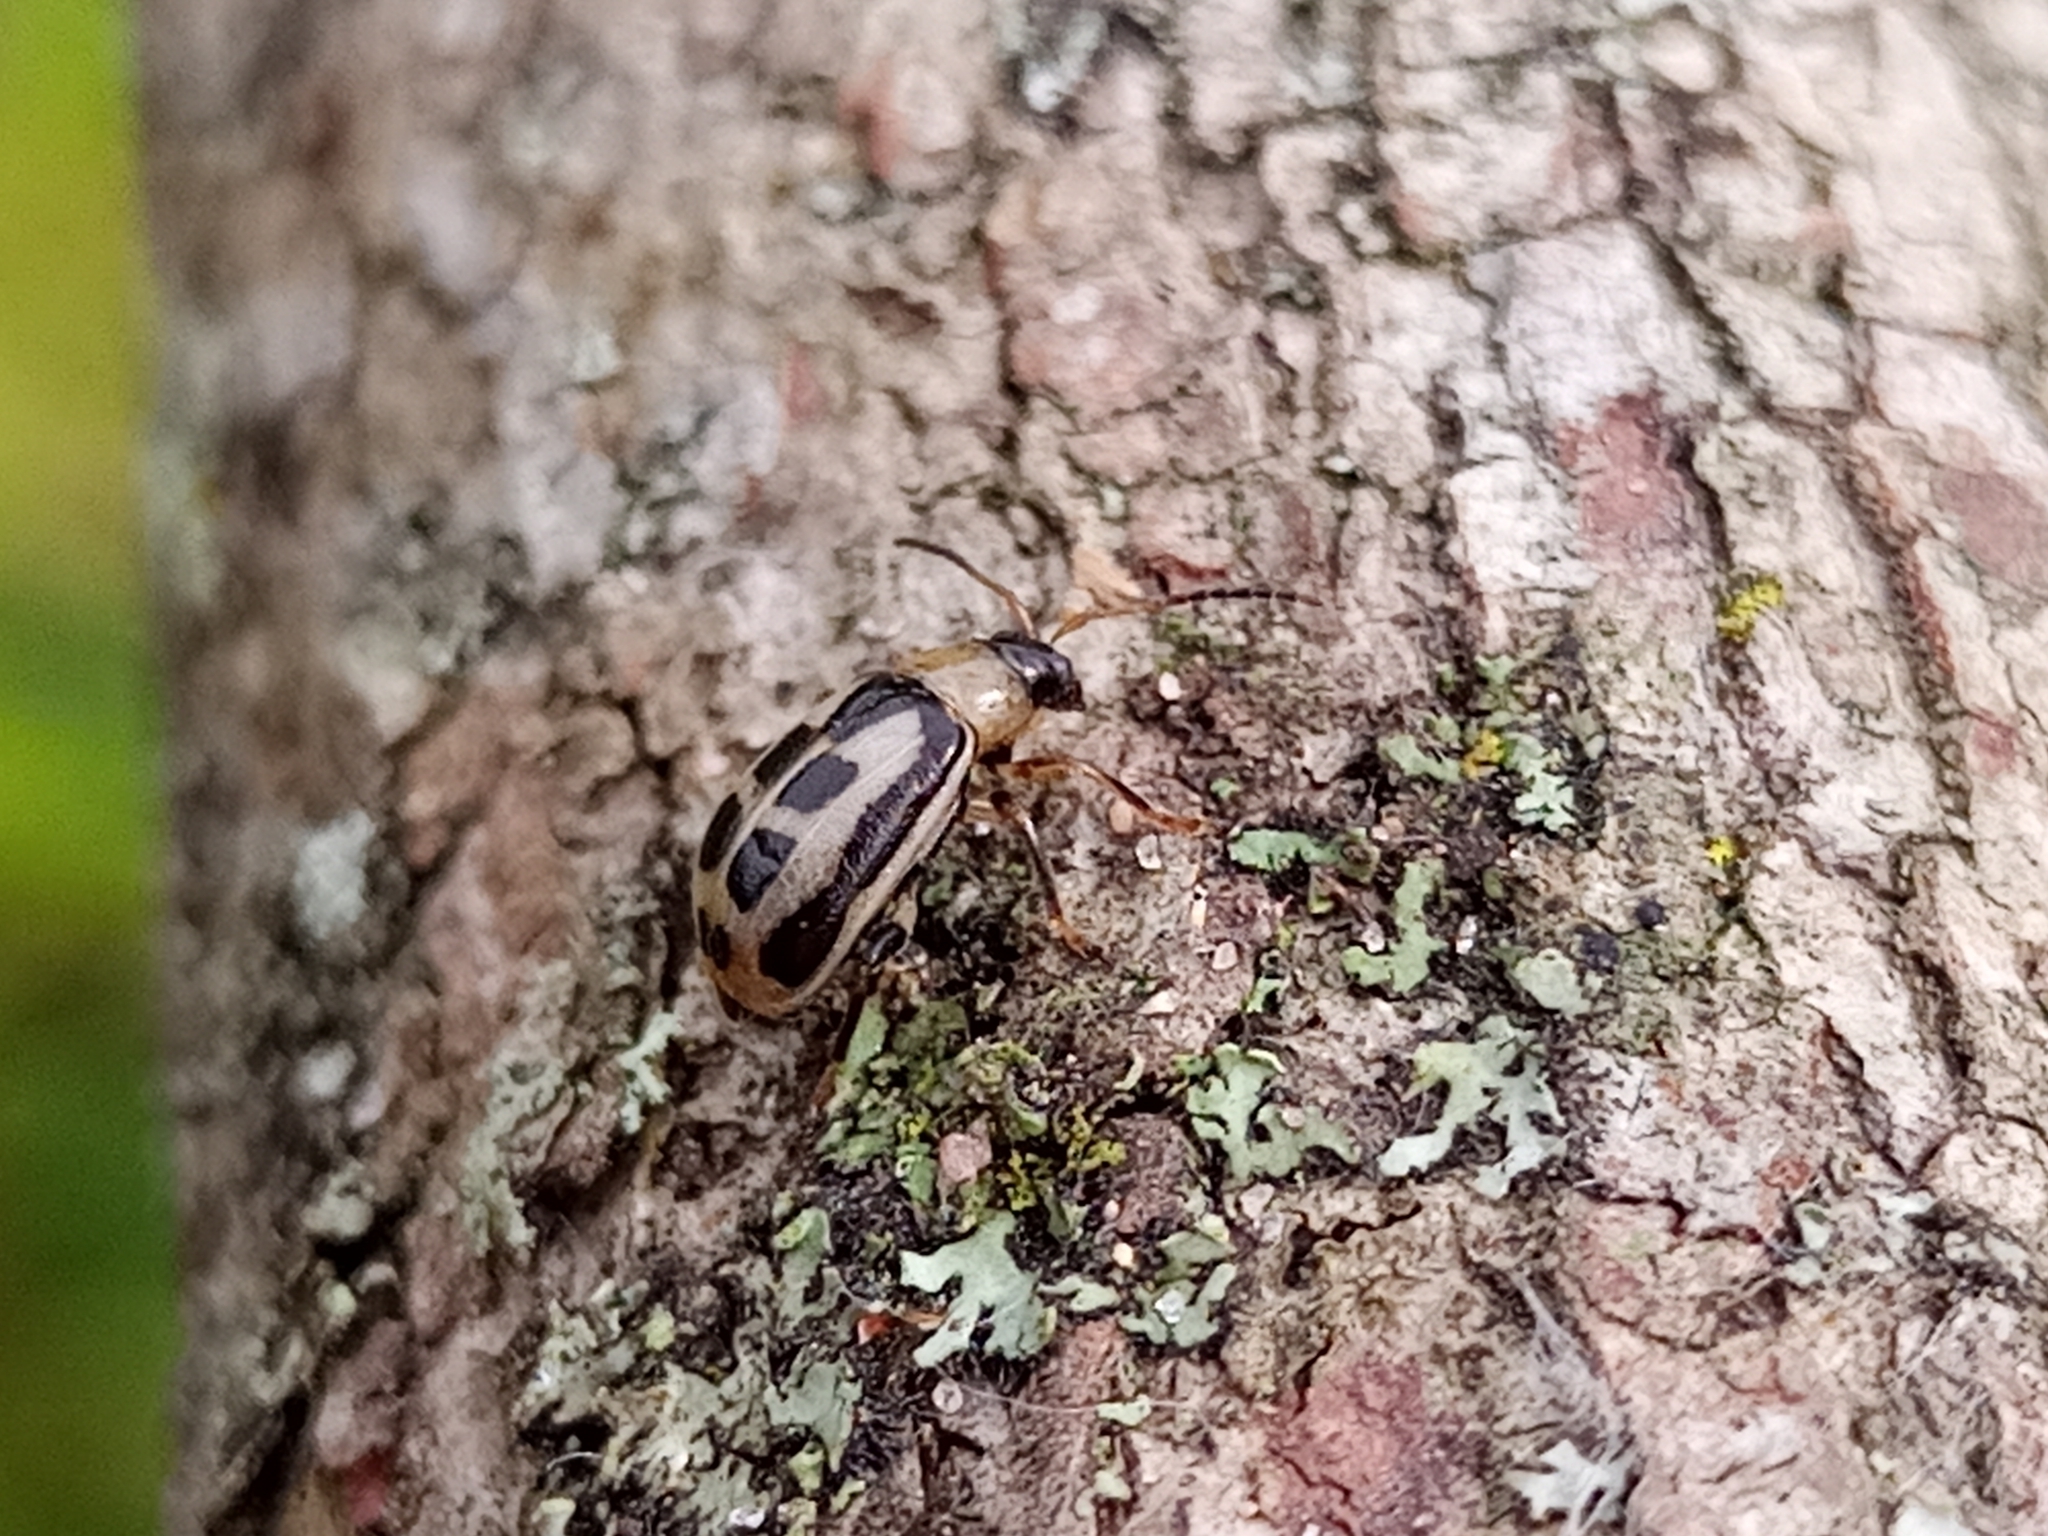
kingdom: Animalia
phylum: Arthropoda
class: Insecta
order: Coleoptera
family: Chrysomelidae
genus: Cerotoma
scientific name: Cerotoma trifurcata
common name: Bean leaf beetle
